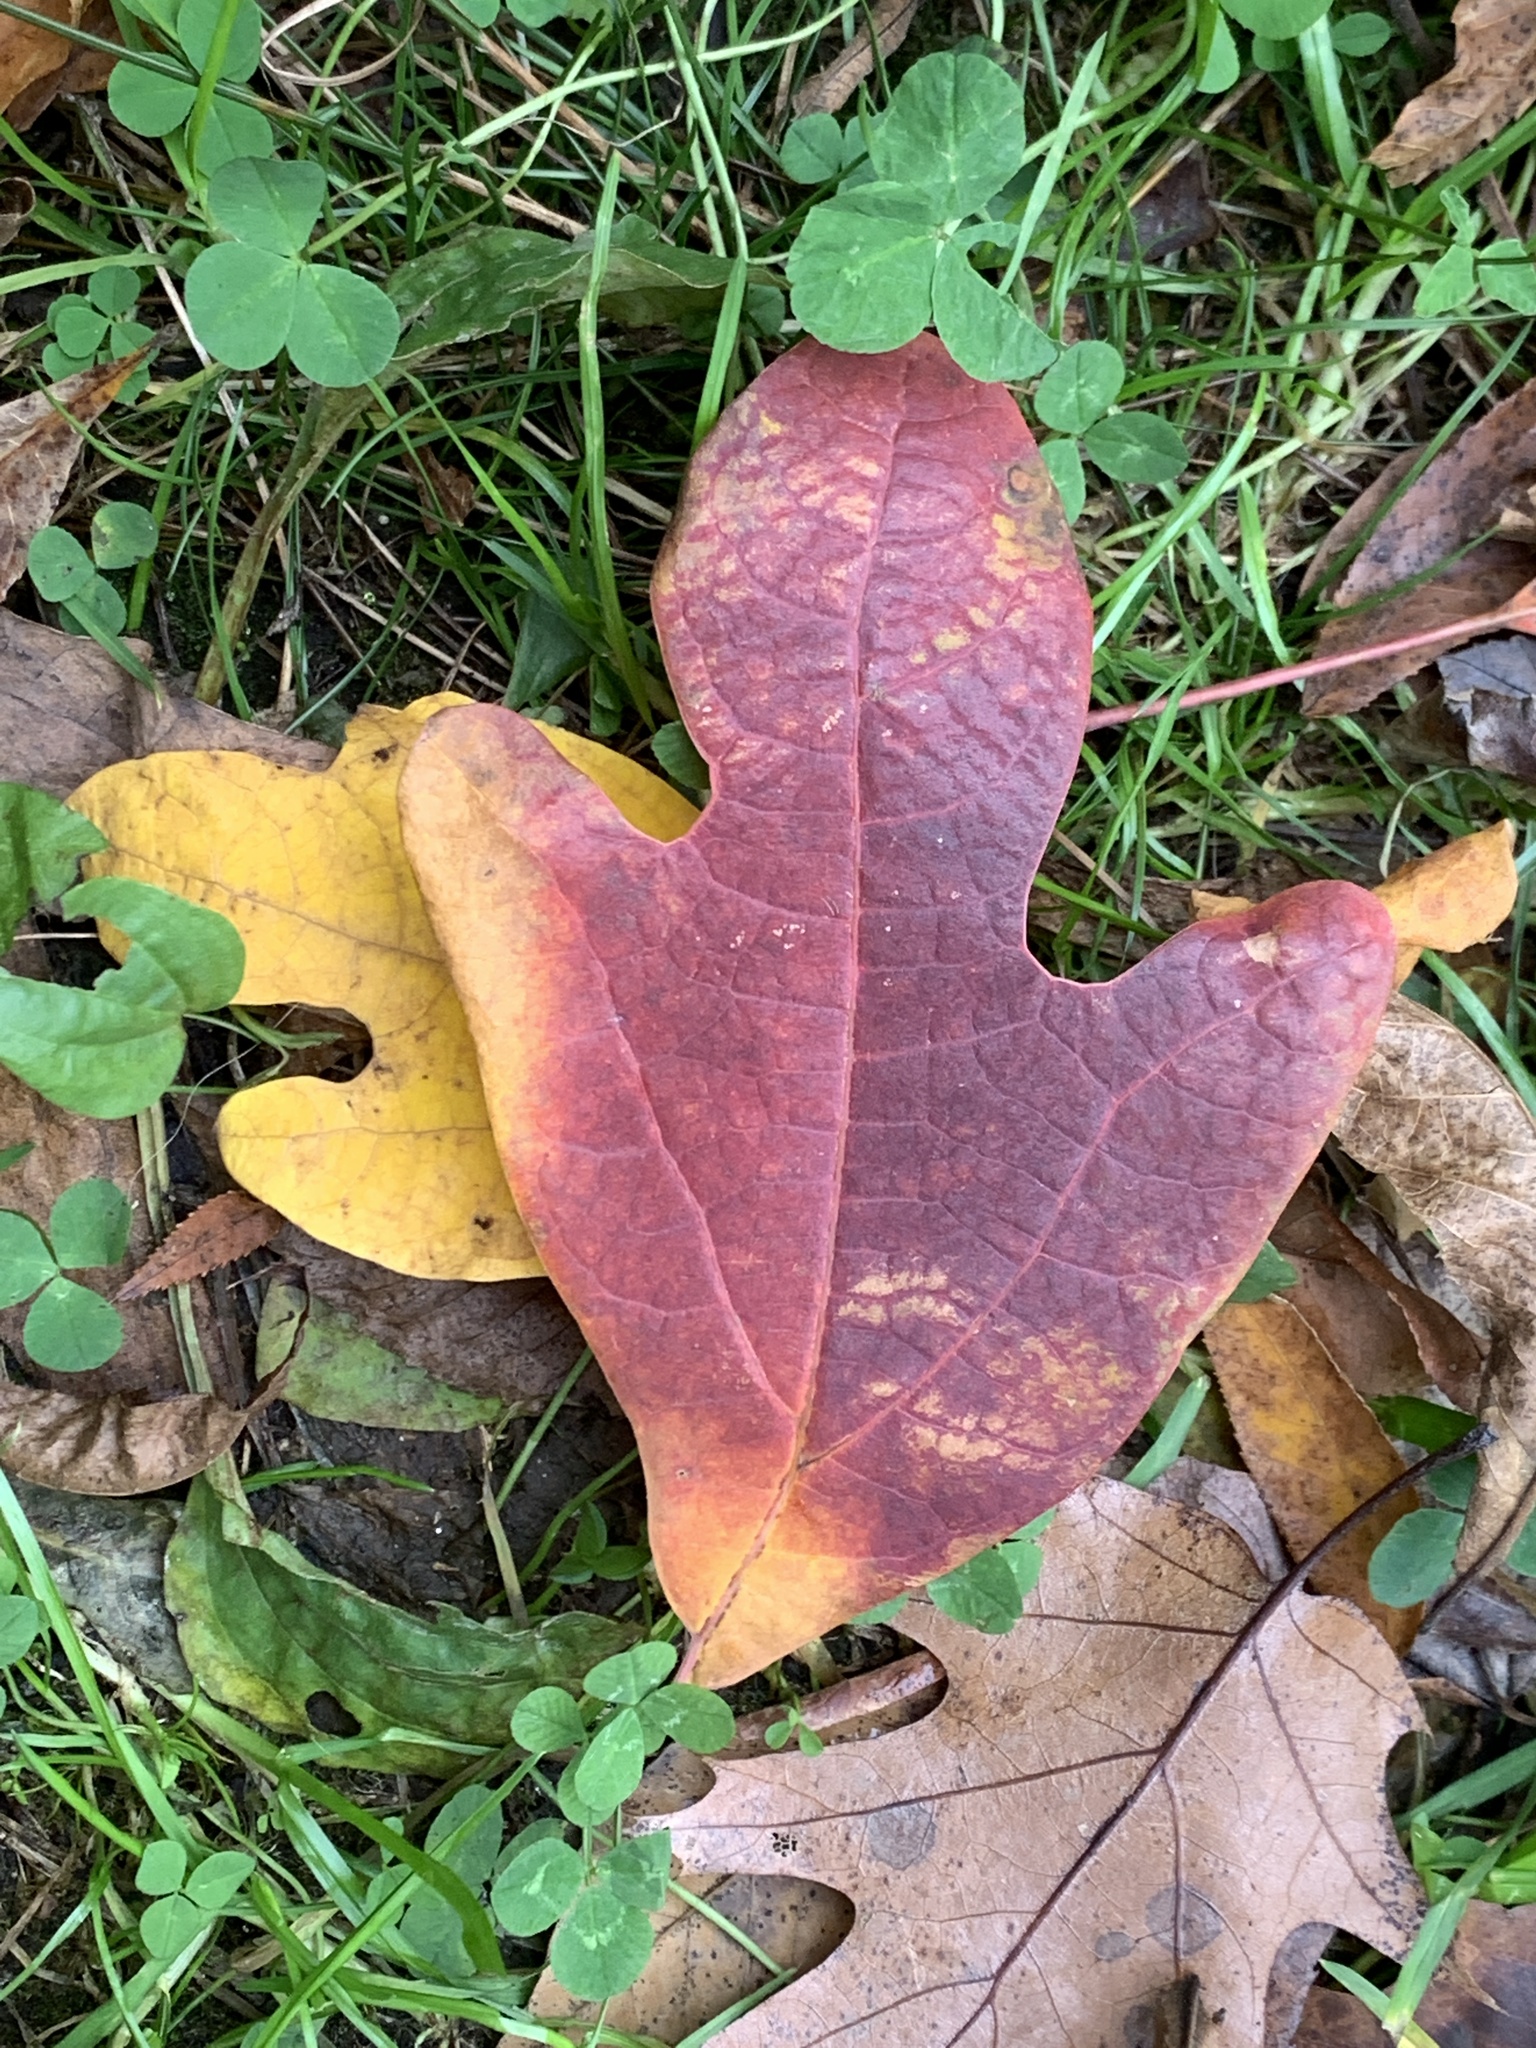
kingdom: Plantae
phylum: Tracheophyta
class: Magnoliopsida
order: Laurales
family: Lauraceae
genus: Sassafras
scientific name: Sassafras albidum
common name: Sassafras
